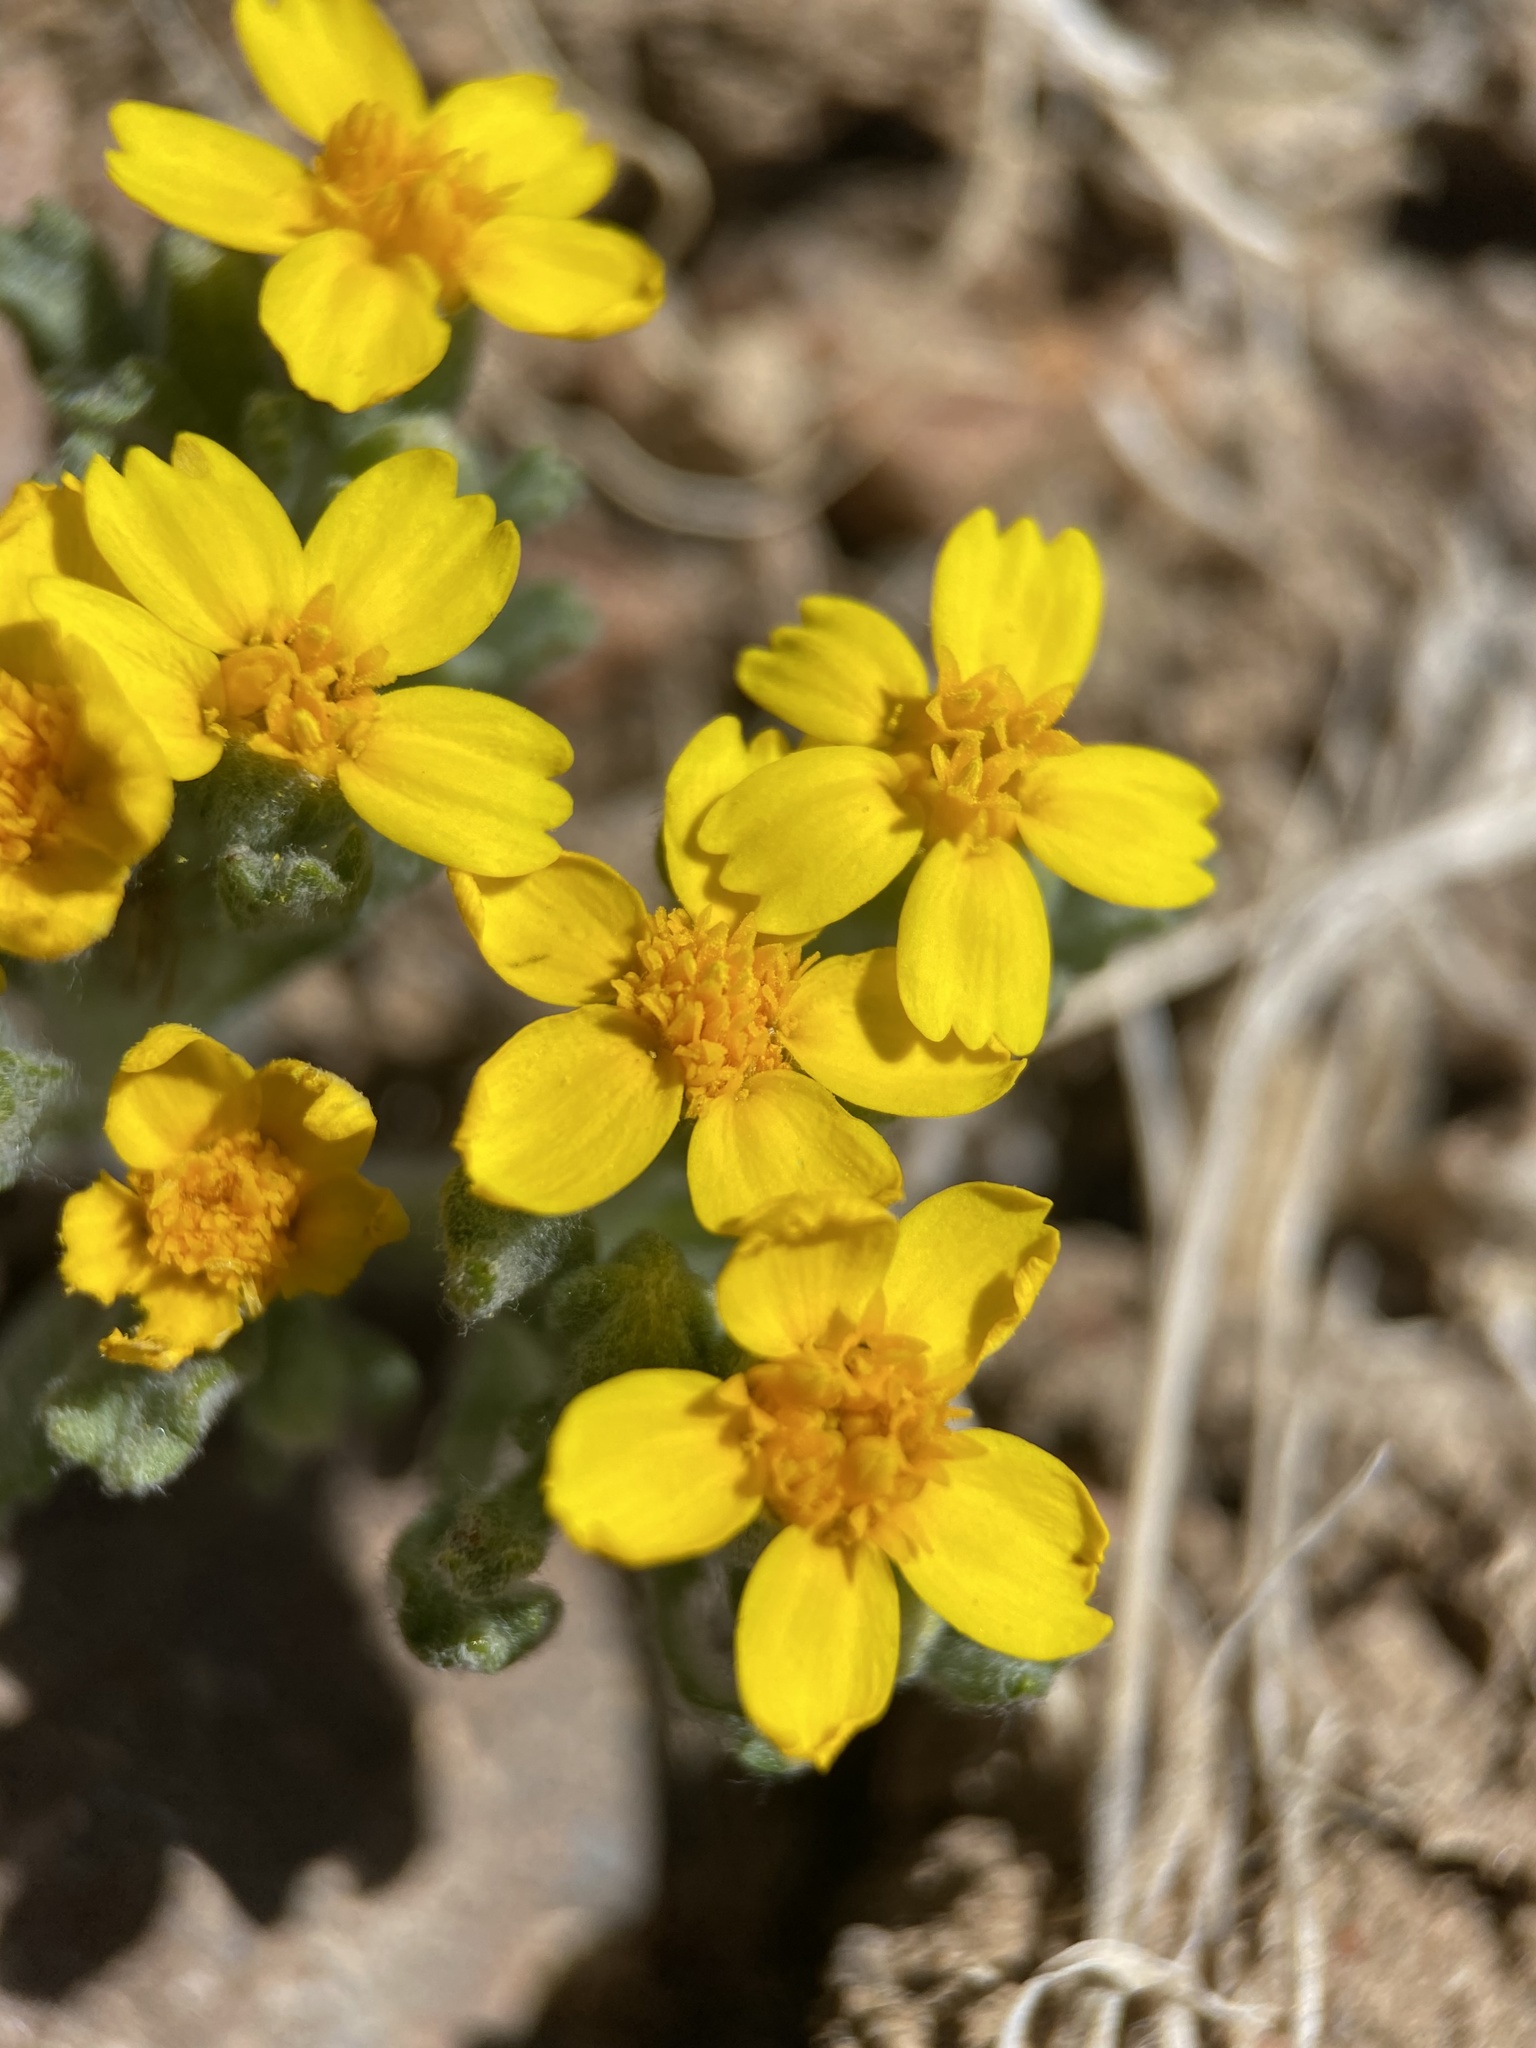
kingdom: Plantae
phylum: Tracheophyta
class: Magnoliopsida
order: Asterales
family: Asteraceae
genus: Syntrichopappus
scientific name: Syntrichopappus fremontii
